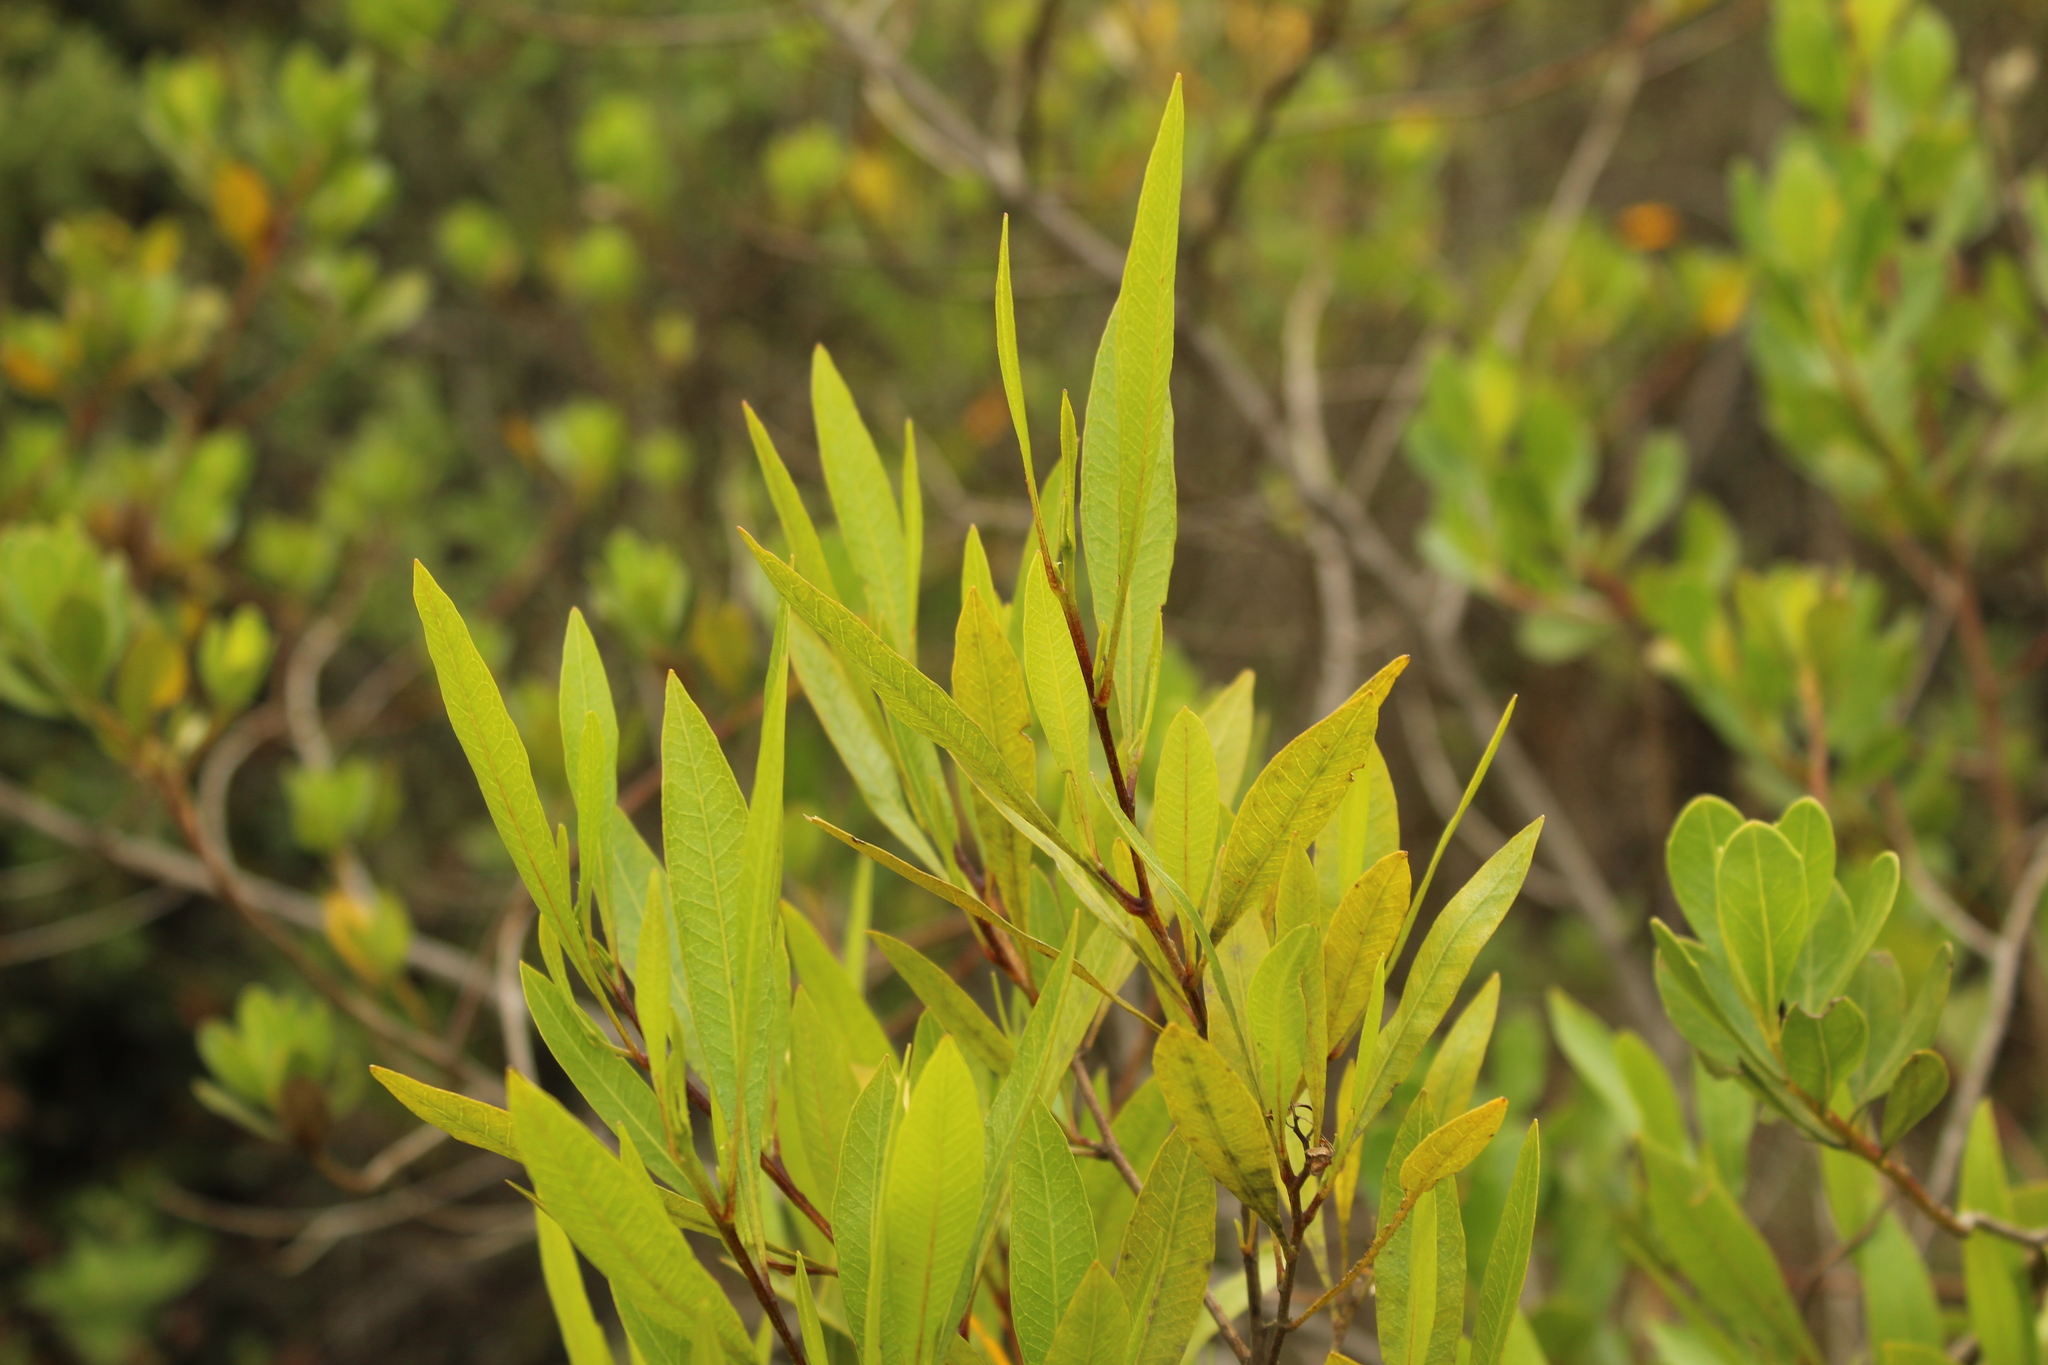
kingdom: Plantae
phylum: Tracheophyta
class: Magnoliopsida
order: Sapindales
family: Sapindaceae
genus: Dodonaea
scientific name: Dodonaea viscosa
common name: Hopbush
